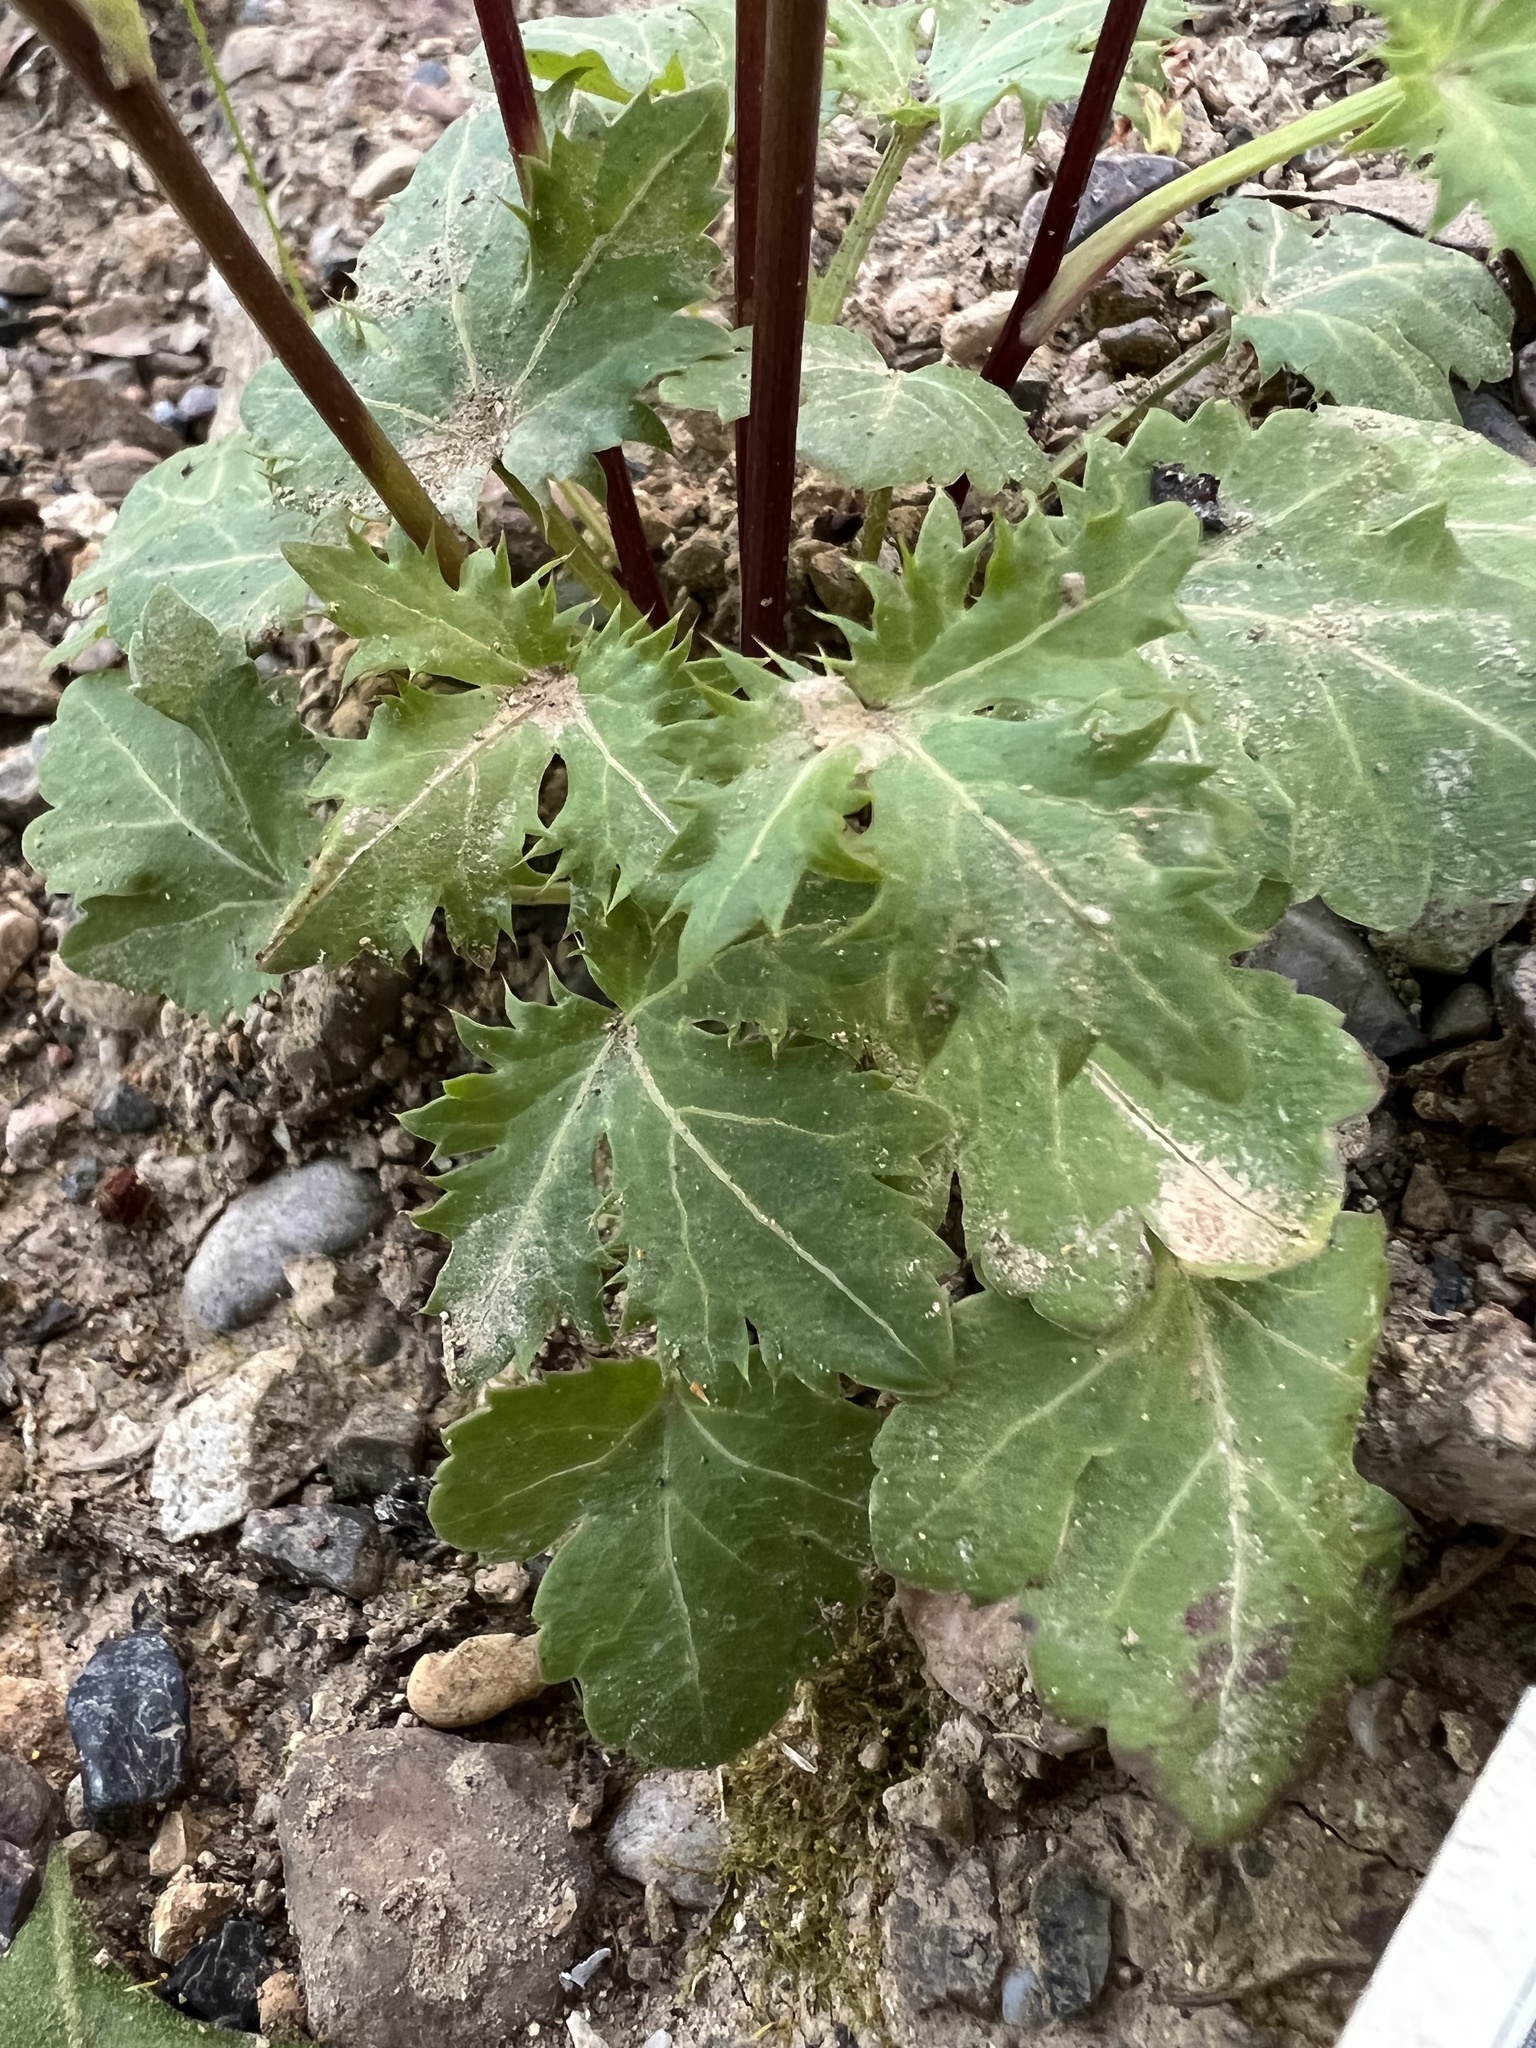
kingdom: Plantae
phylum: Tracheophyta
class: Magnoliopsida
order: Apiales
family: Apiaceae
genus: Sanicula
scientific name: Sanicula crassicaulis
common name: Western snakeroot
